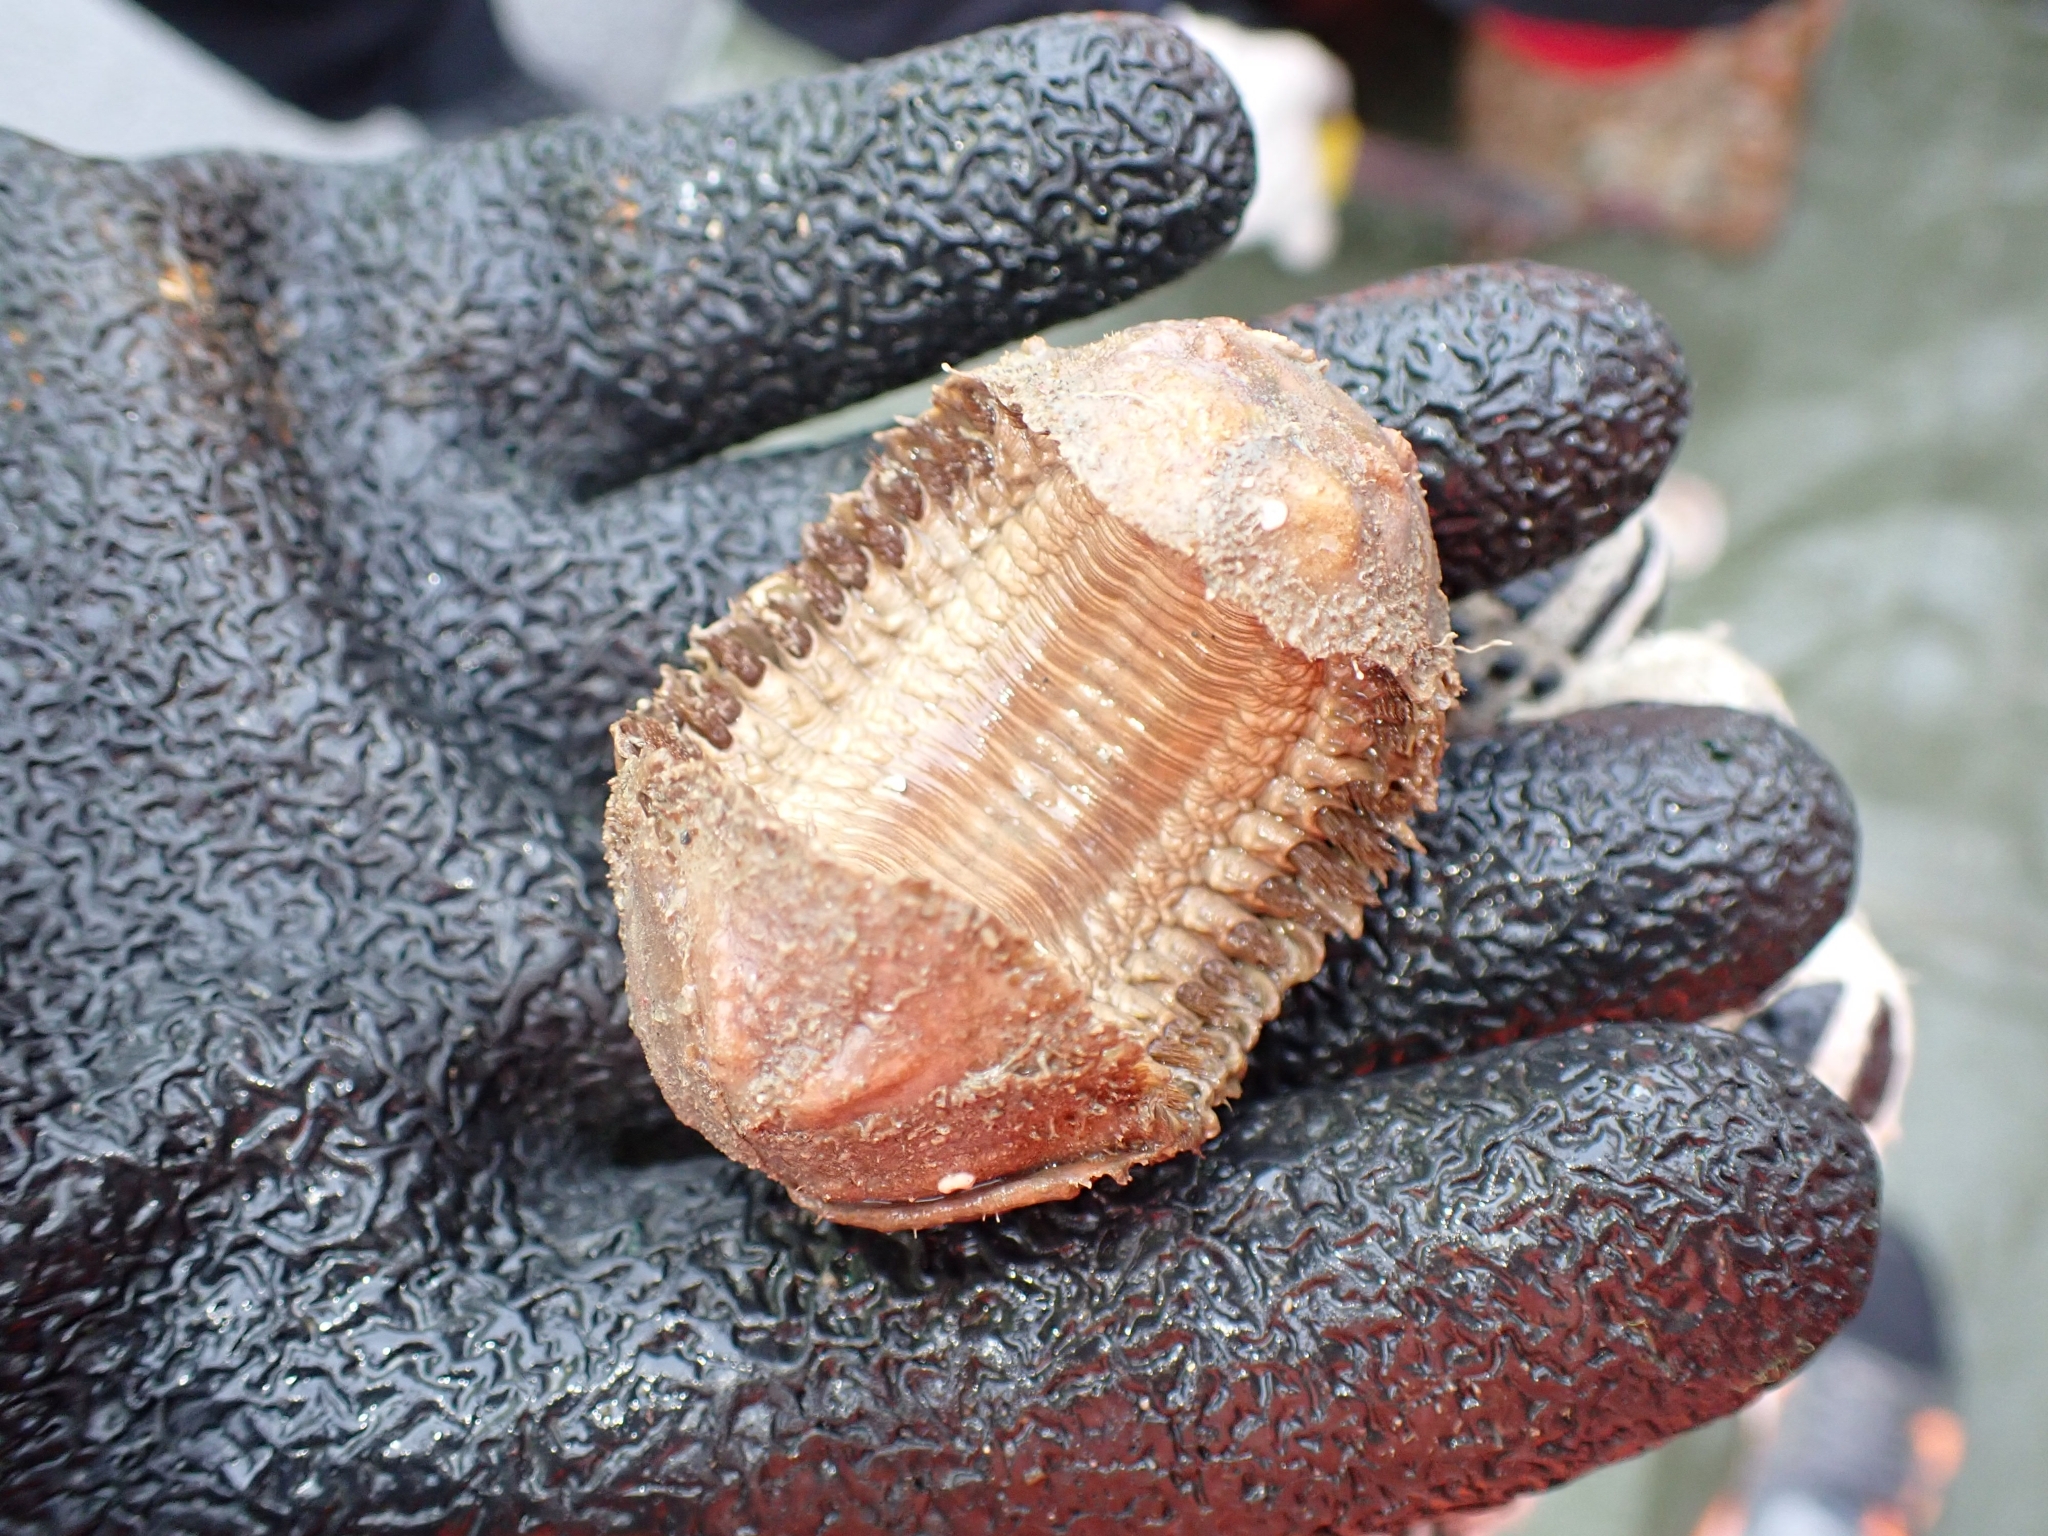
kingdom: Animalia
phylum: Annelida
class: Polychaeta
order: Phyllodocida
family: Polynoidae
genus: Euphione
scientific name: Euphione squamosa
